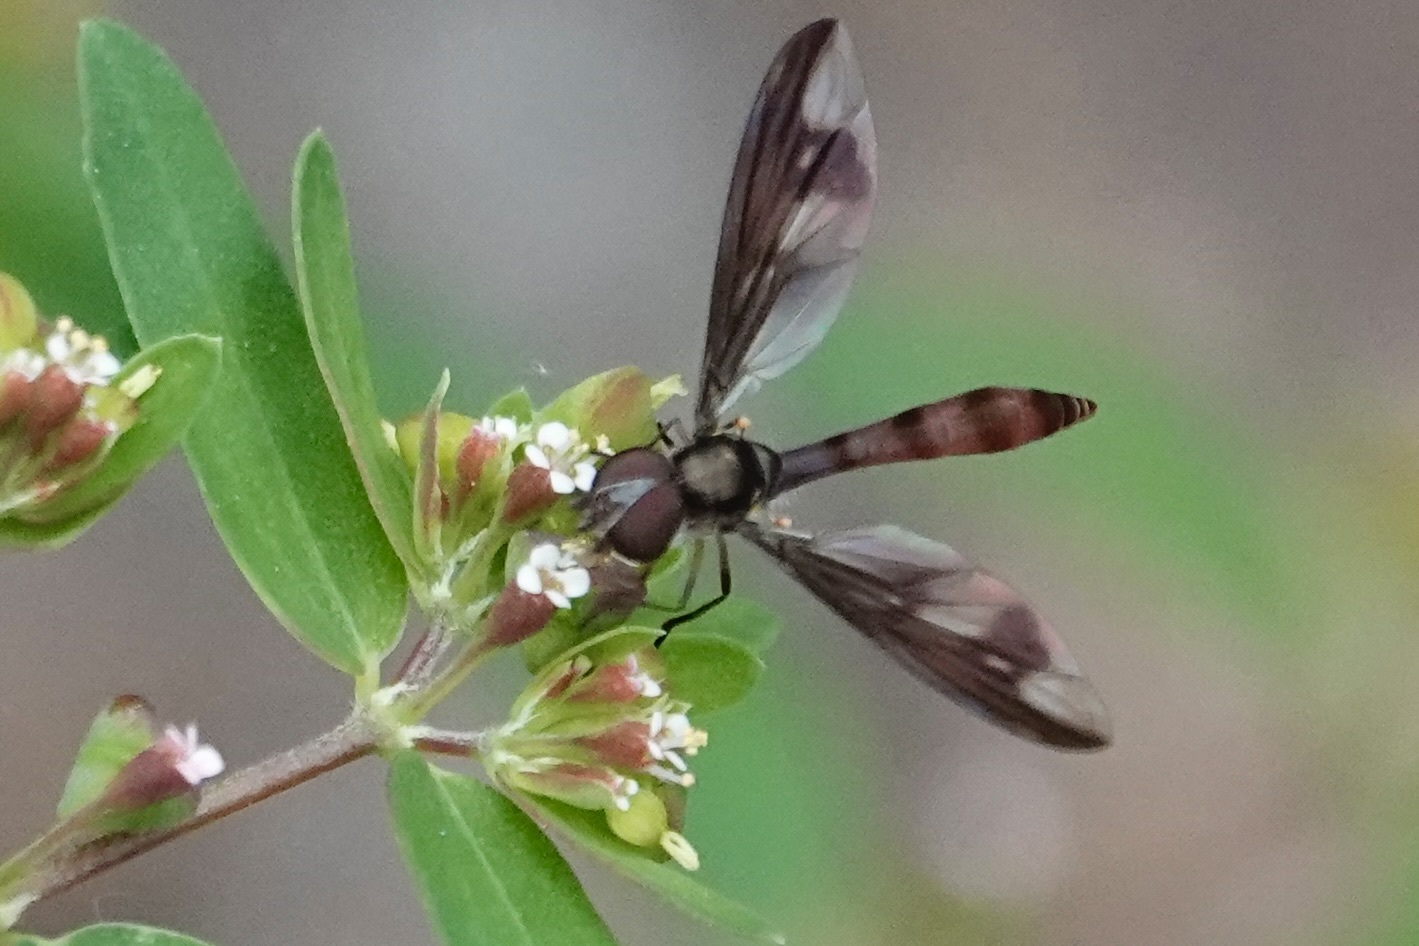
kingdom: Animalia
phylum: Arthropoda
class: Insecta
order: Diptera
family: Syrphidae
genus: Ocyptamus
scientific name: Ocyptamus fuscipennis
